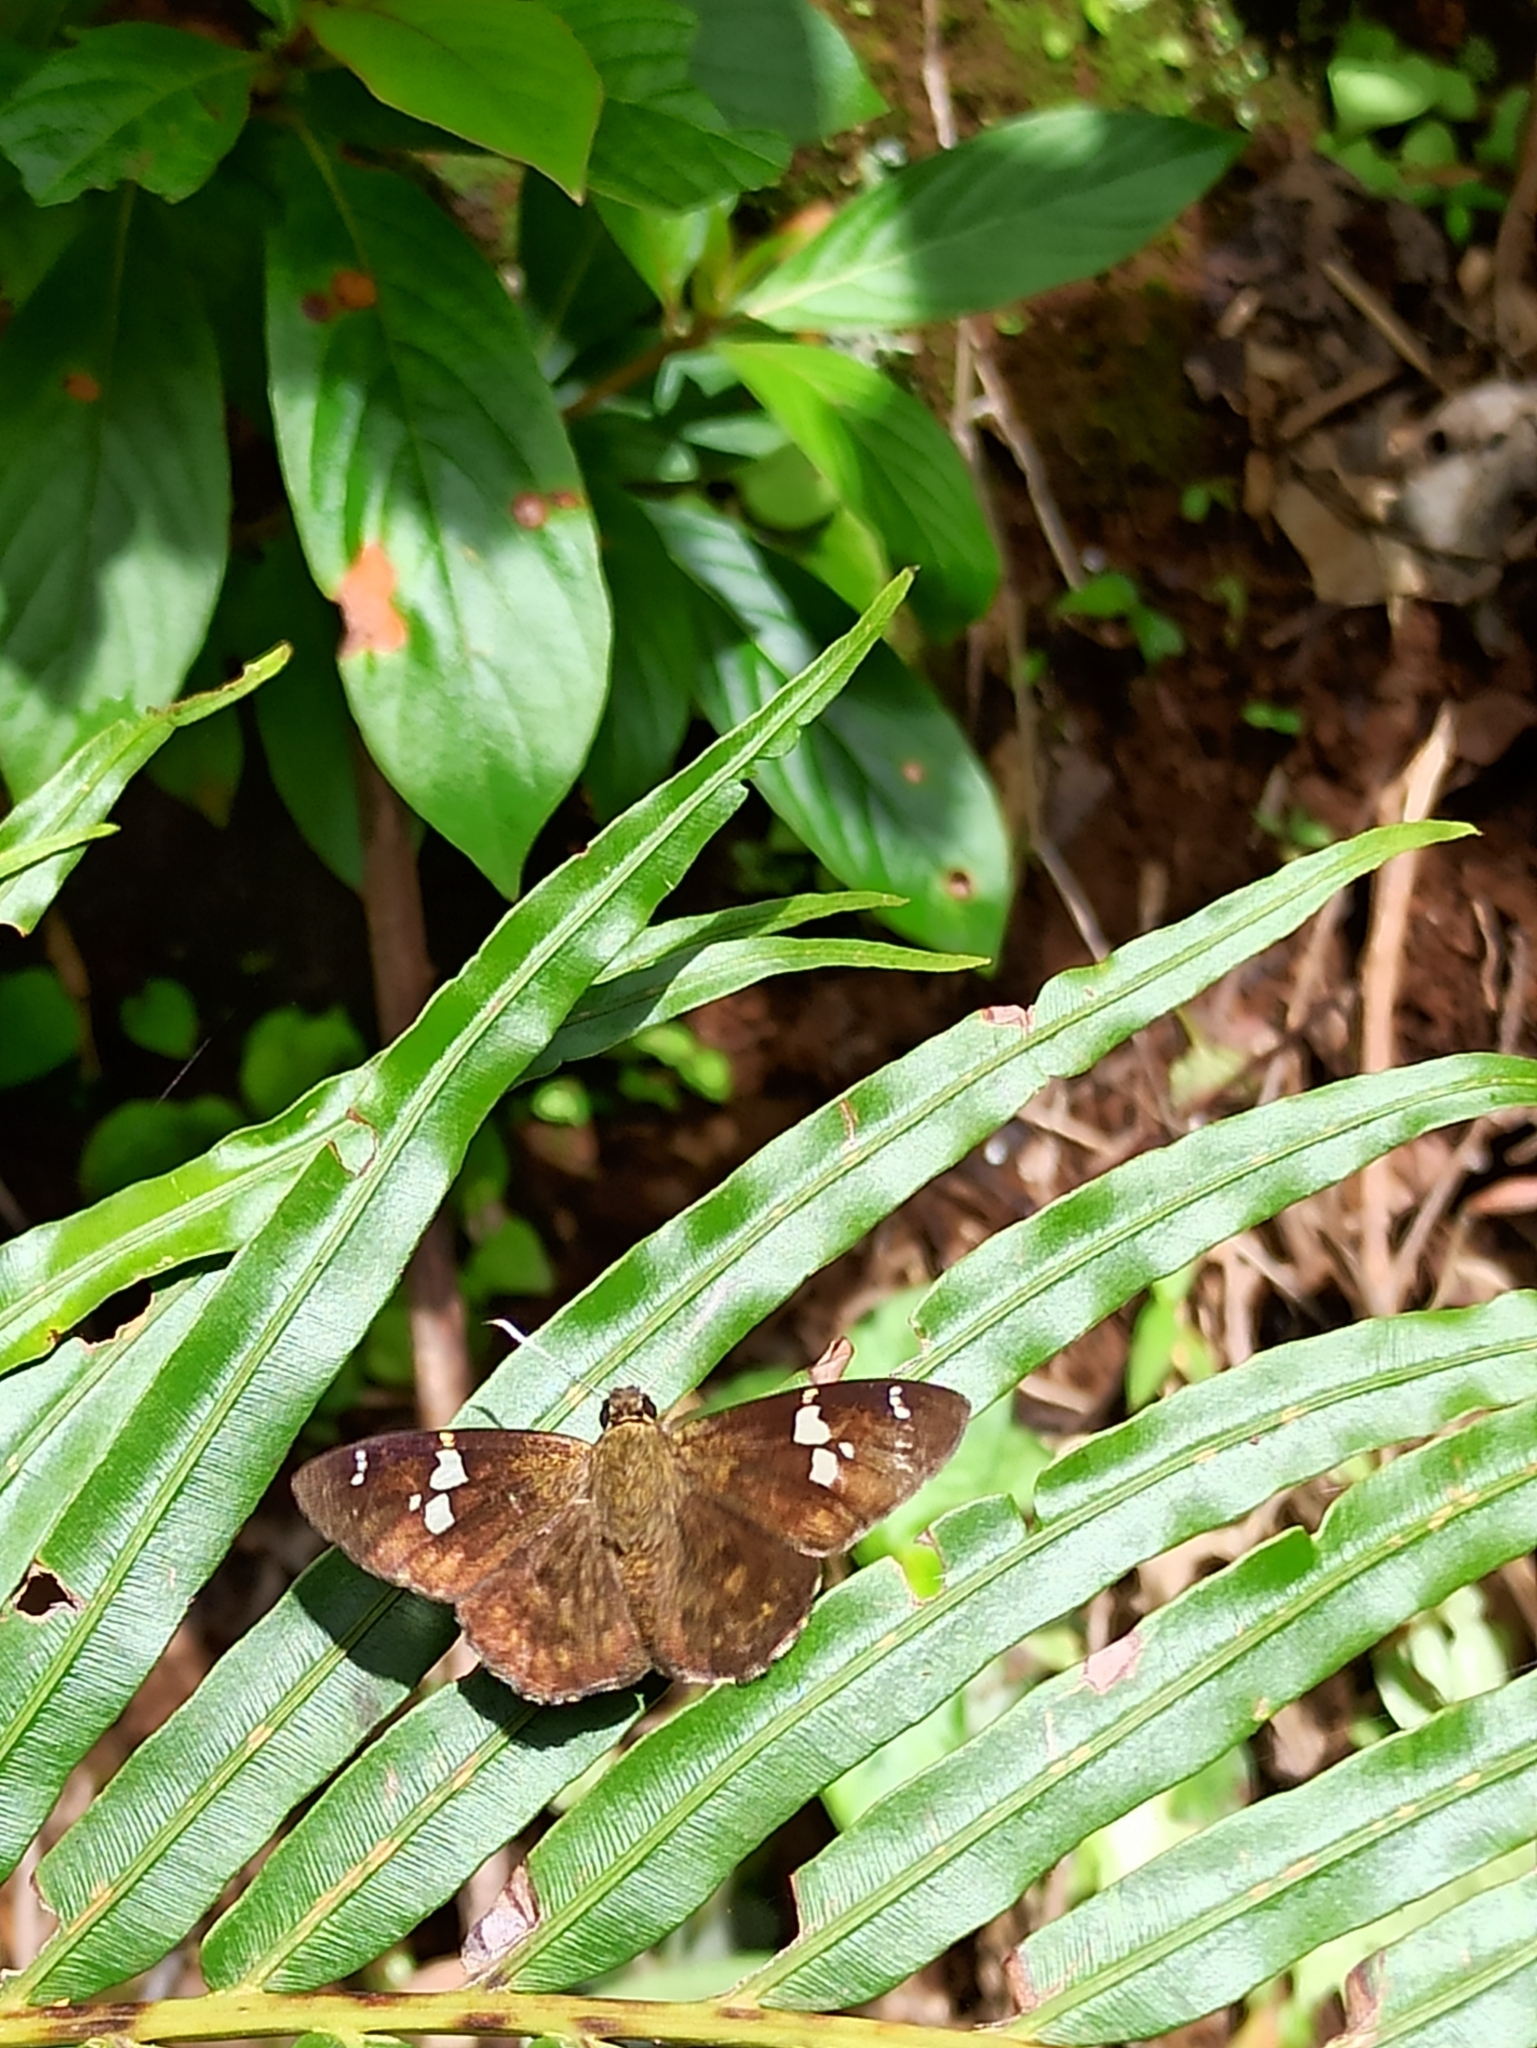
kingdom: Animalia
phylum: Arthropoda
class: Insecta
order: Lepidoptera
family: Hesperiidae
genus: Celaenorrhinus
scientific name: Celaenorrhinus
